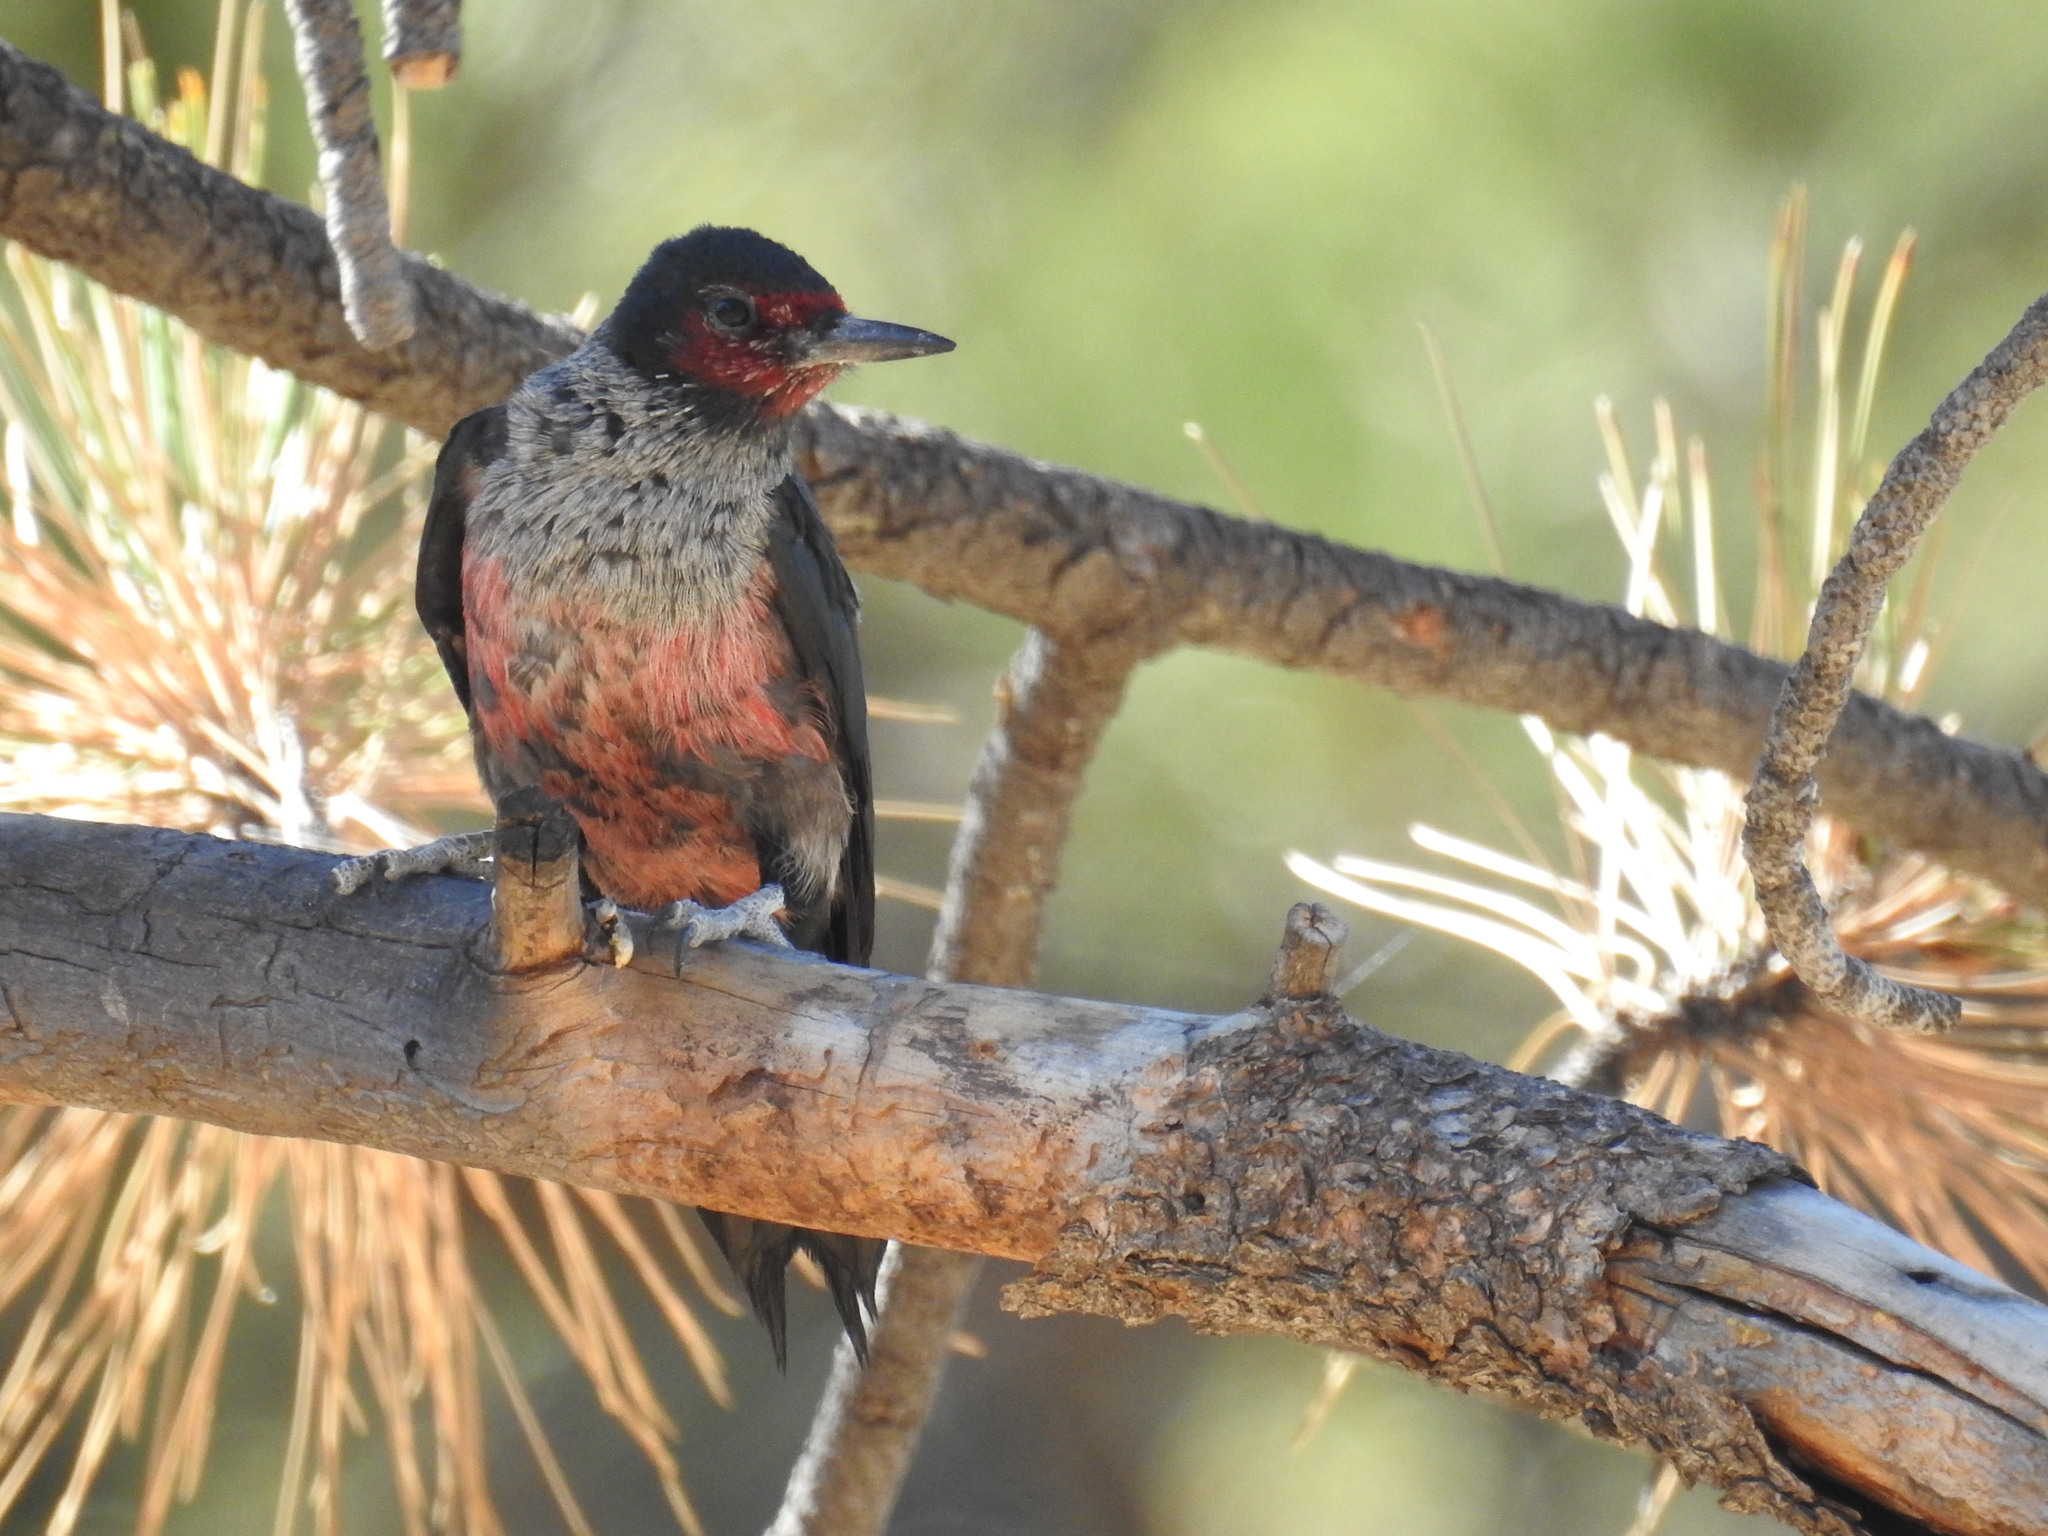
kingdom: Animalia
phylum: Chordata
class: Aves
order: Piciformes
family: Picidae
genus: Melanerpes
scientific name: Melanerpes lewis
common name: Lewis's woodpecker
